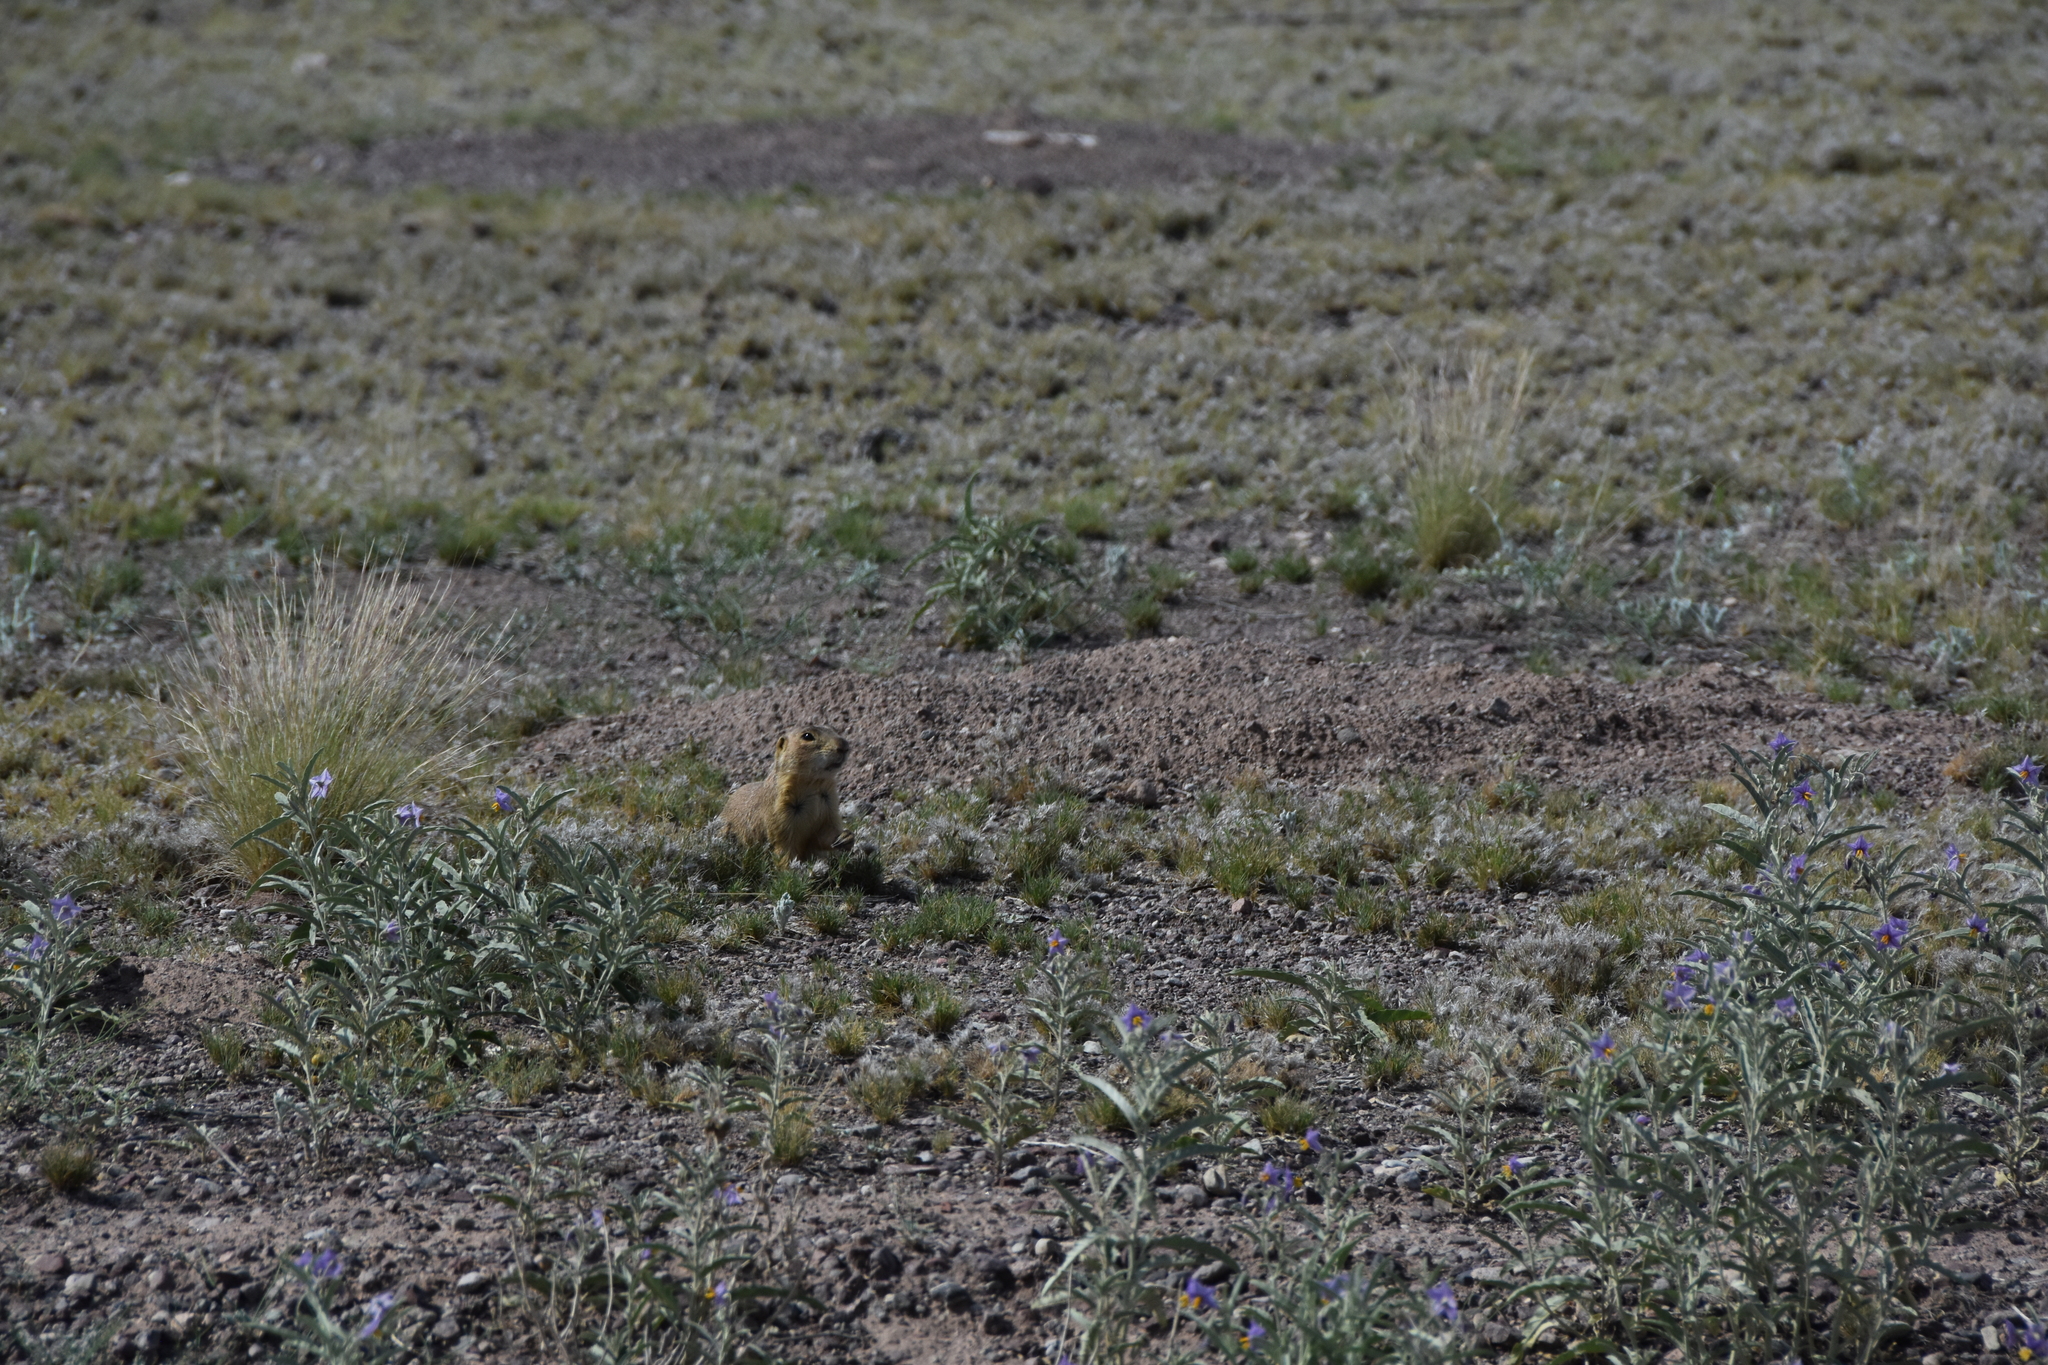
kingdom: Animalia
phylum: Chordata
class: Mammalia
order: Rodentia
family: Sciuridae
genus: Cynomys
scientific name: Cynomys gunnisoni
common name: Gunnison's prairie dog
